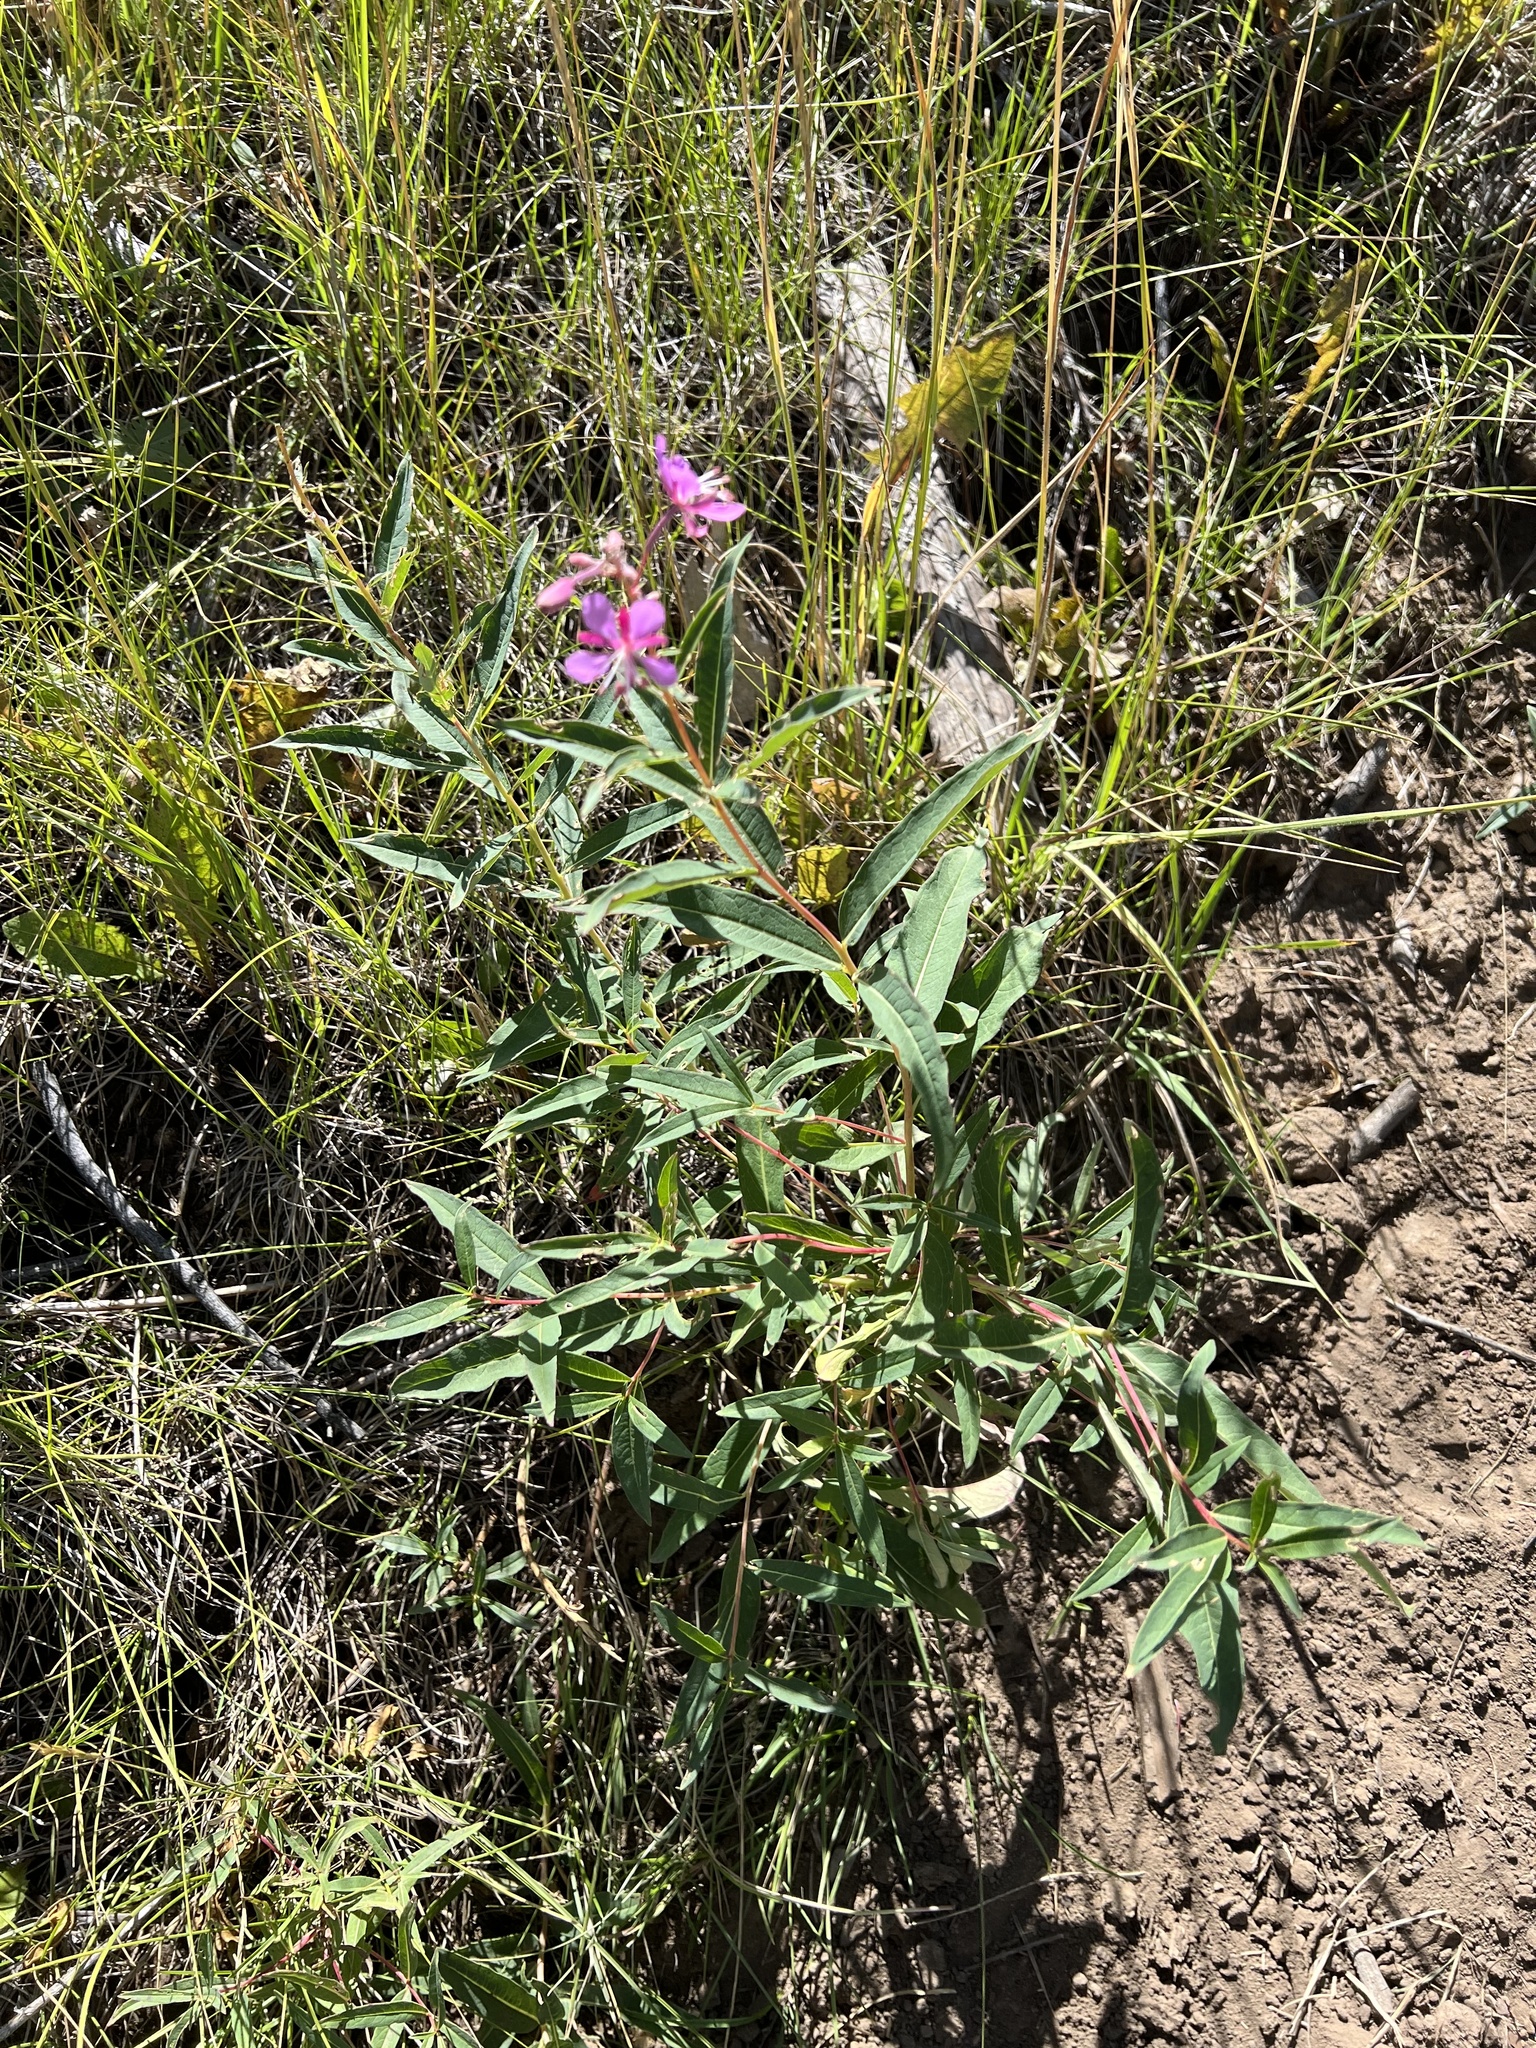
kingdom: Plantae
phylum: Tracheophyta
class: Magnoliopsida
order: Myrtales
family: Onagraceae
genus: Chamaenerion
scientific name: Chamaenerion angustifolium
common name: Fireweed
